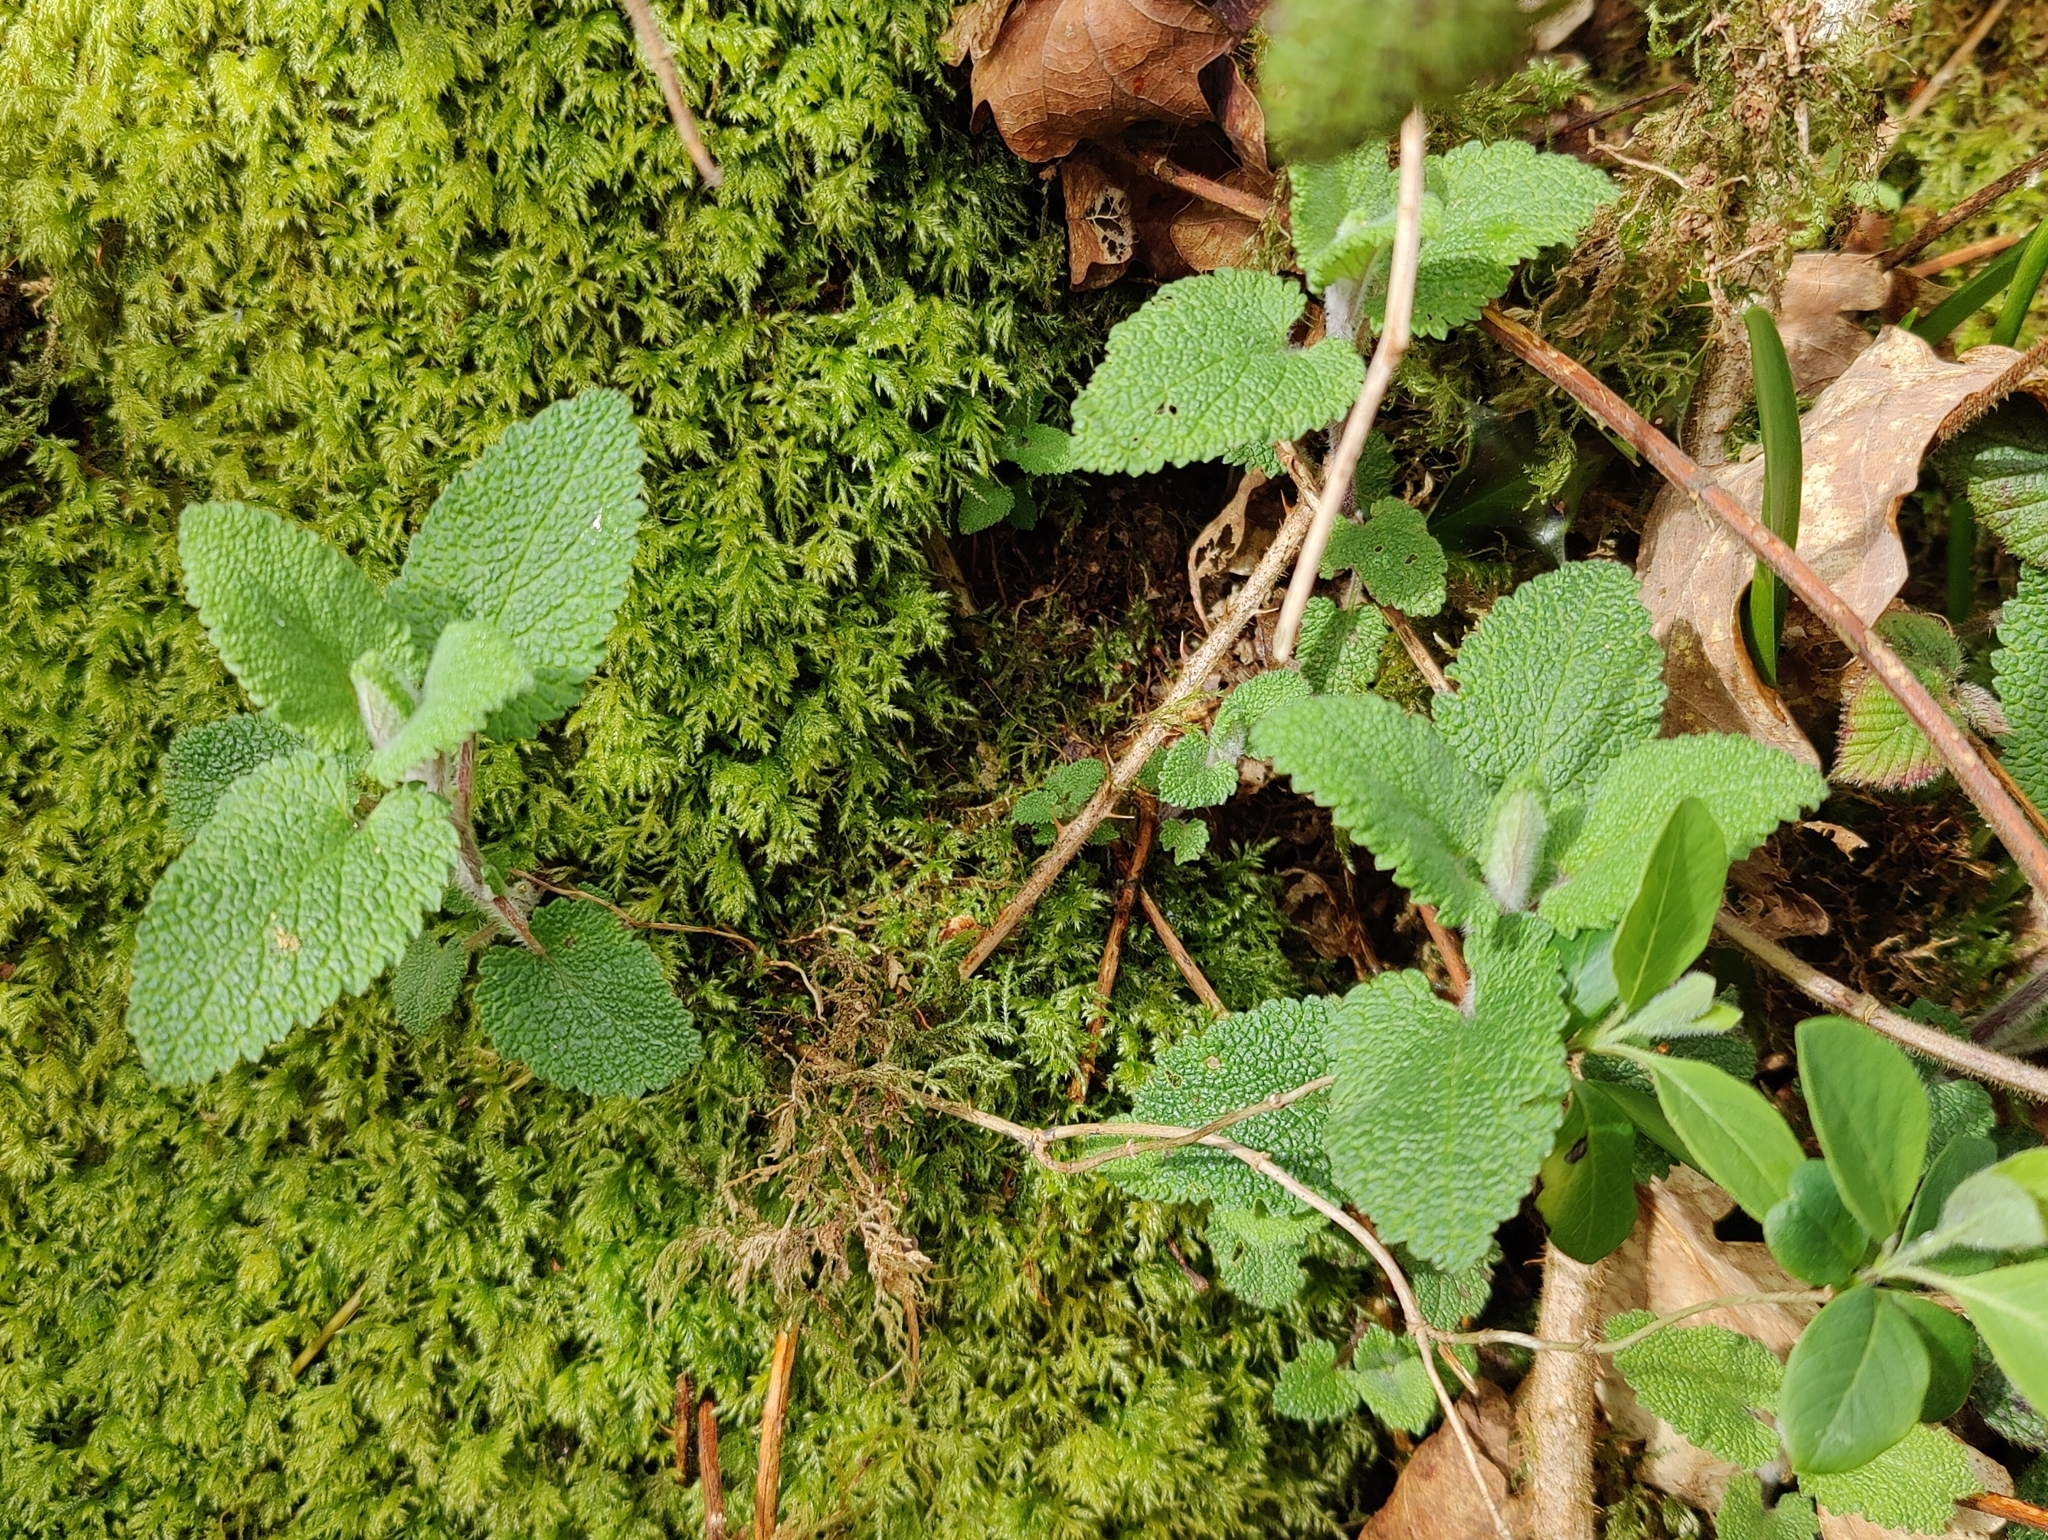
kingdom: Plantae
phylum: Tracheophyta
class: Magnoliopsida
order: Lamiales
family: Lamiaceae
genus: Teucrium
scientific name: Teucrium scorodonia
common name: Woodland germander
